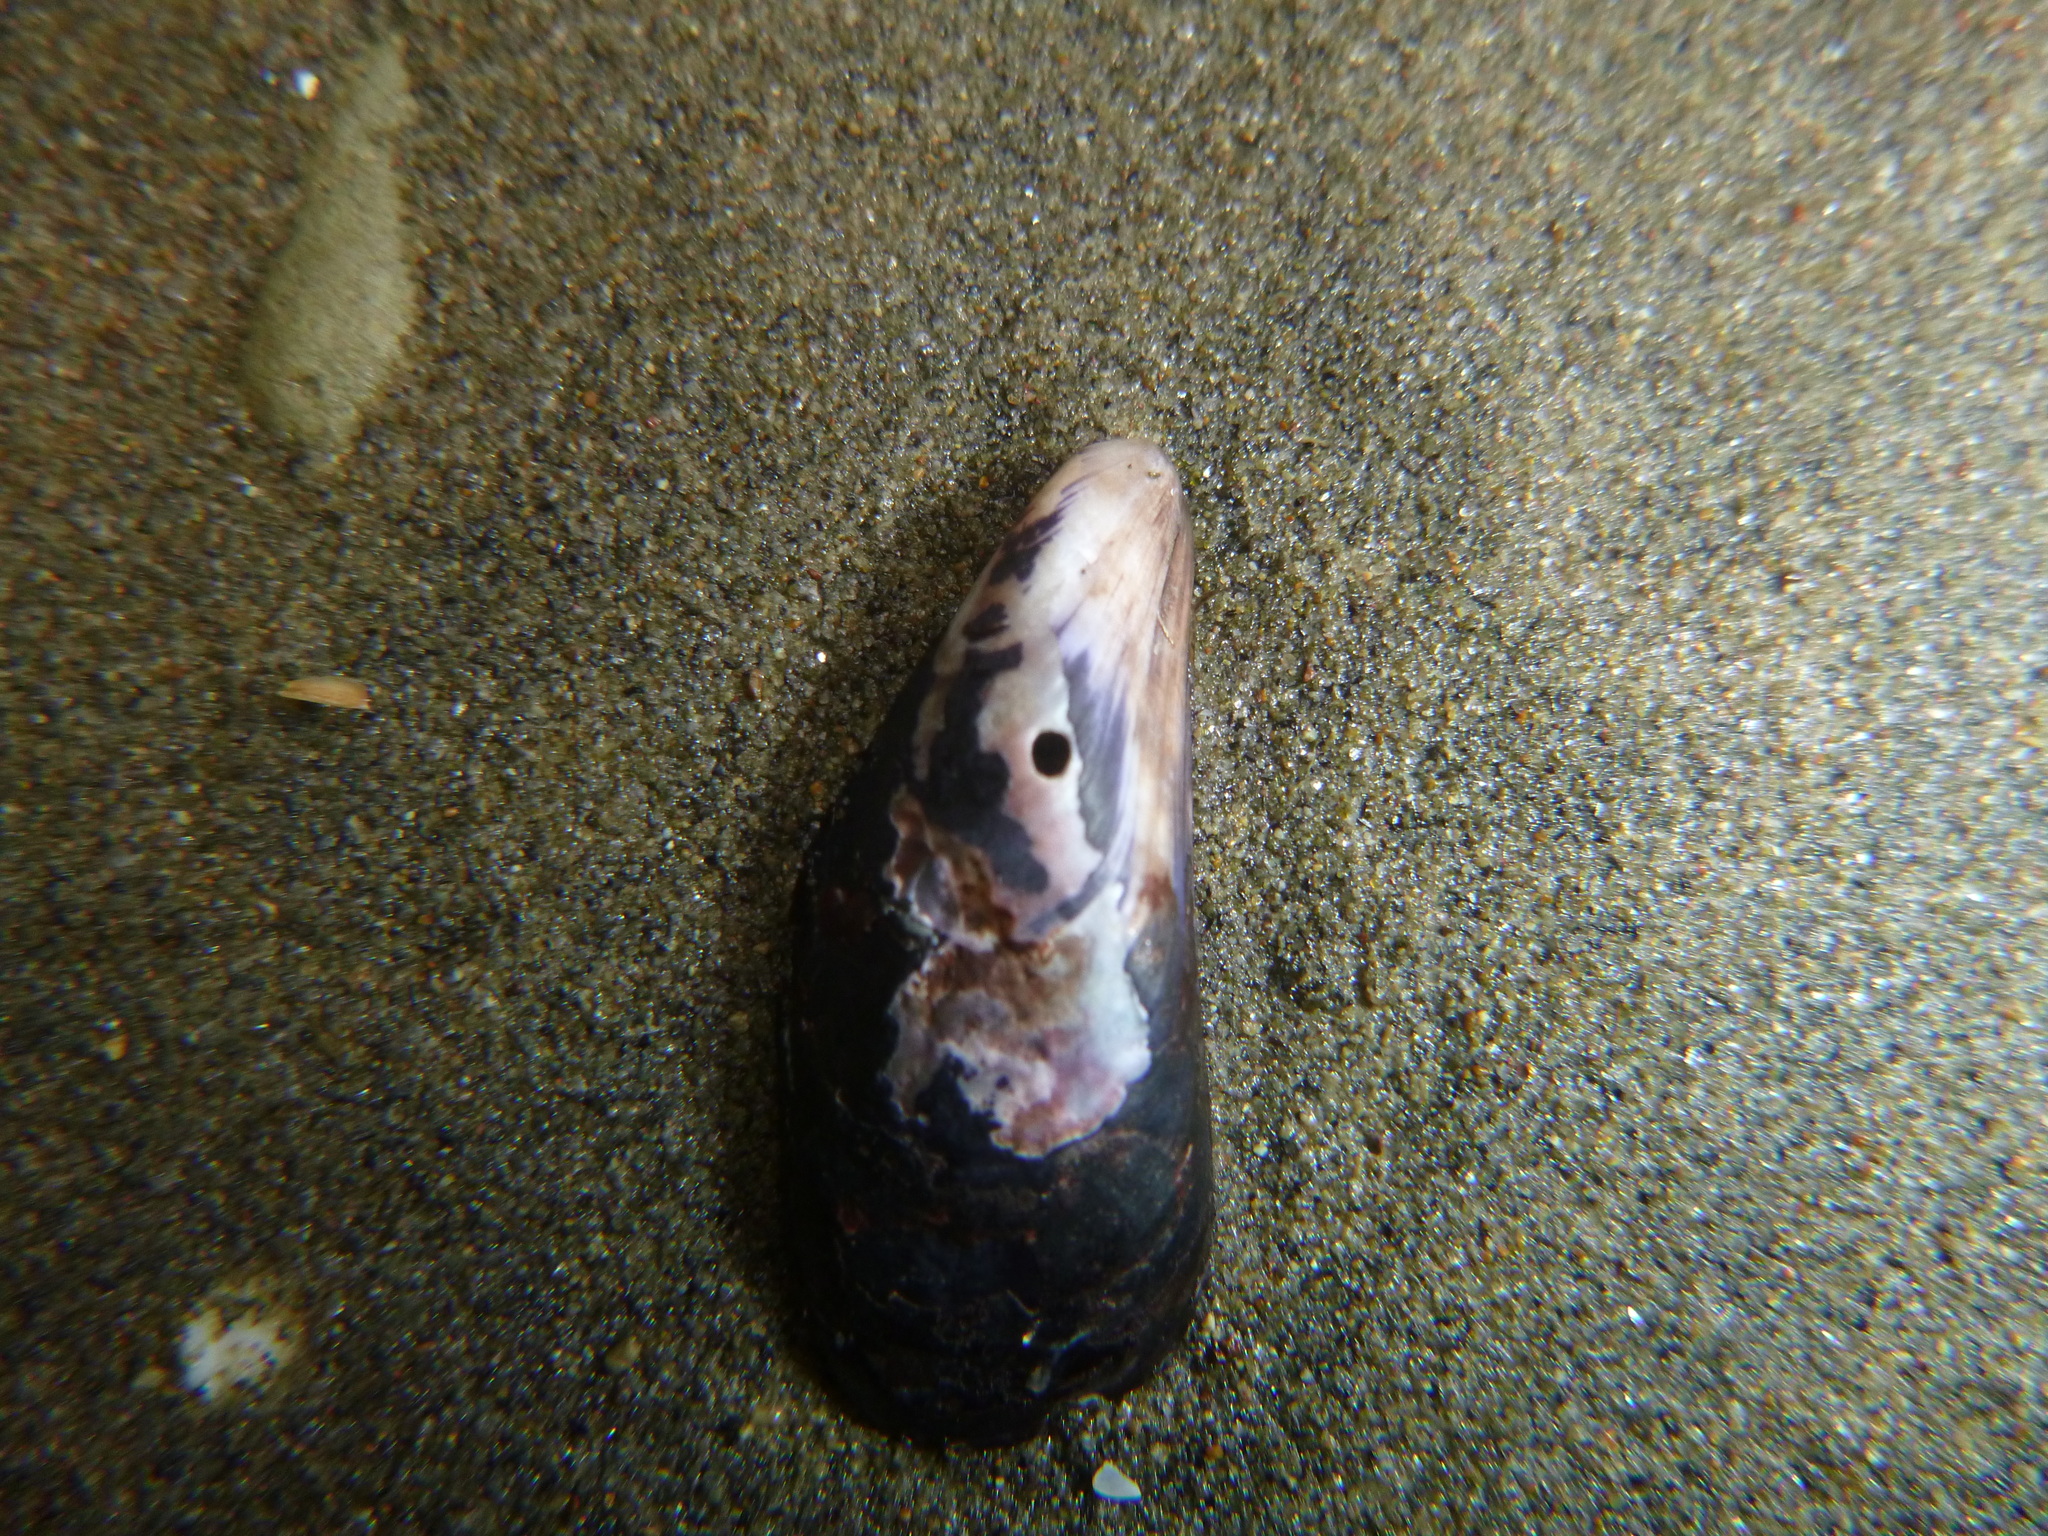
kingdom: Animalia
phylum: Mollusca
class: Bivalvia
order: Mytilida
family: Mytilidae
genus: Xenostrobus
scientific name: Xenostrobus neozelanicus
